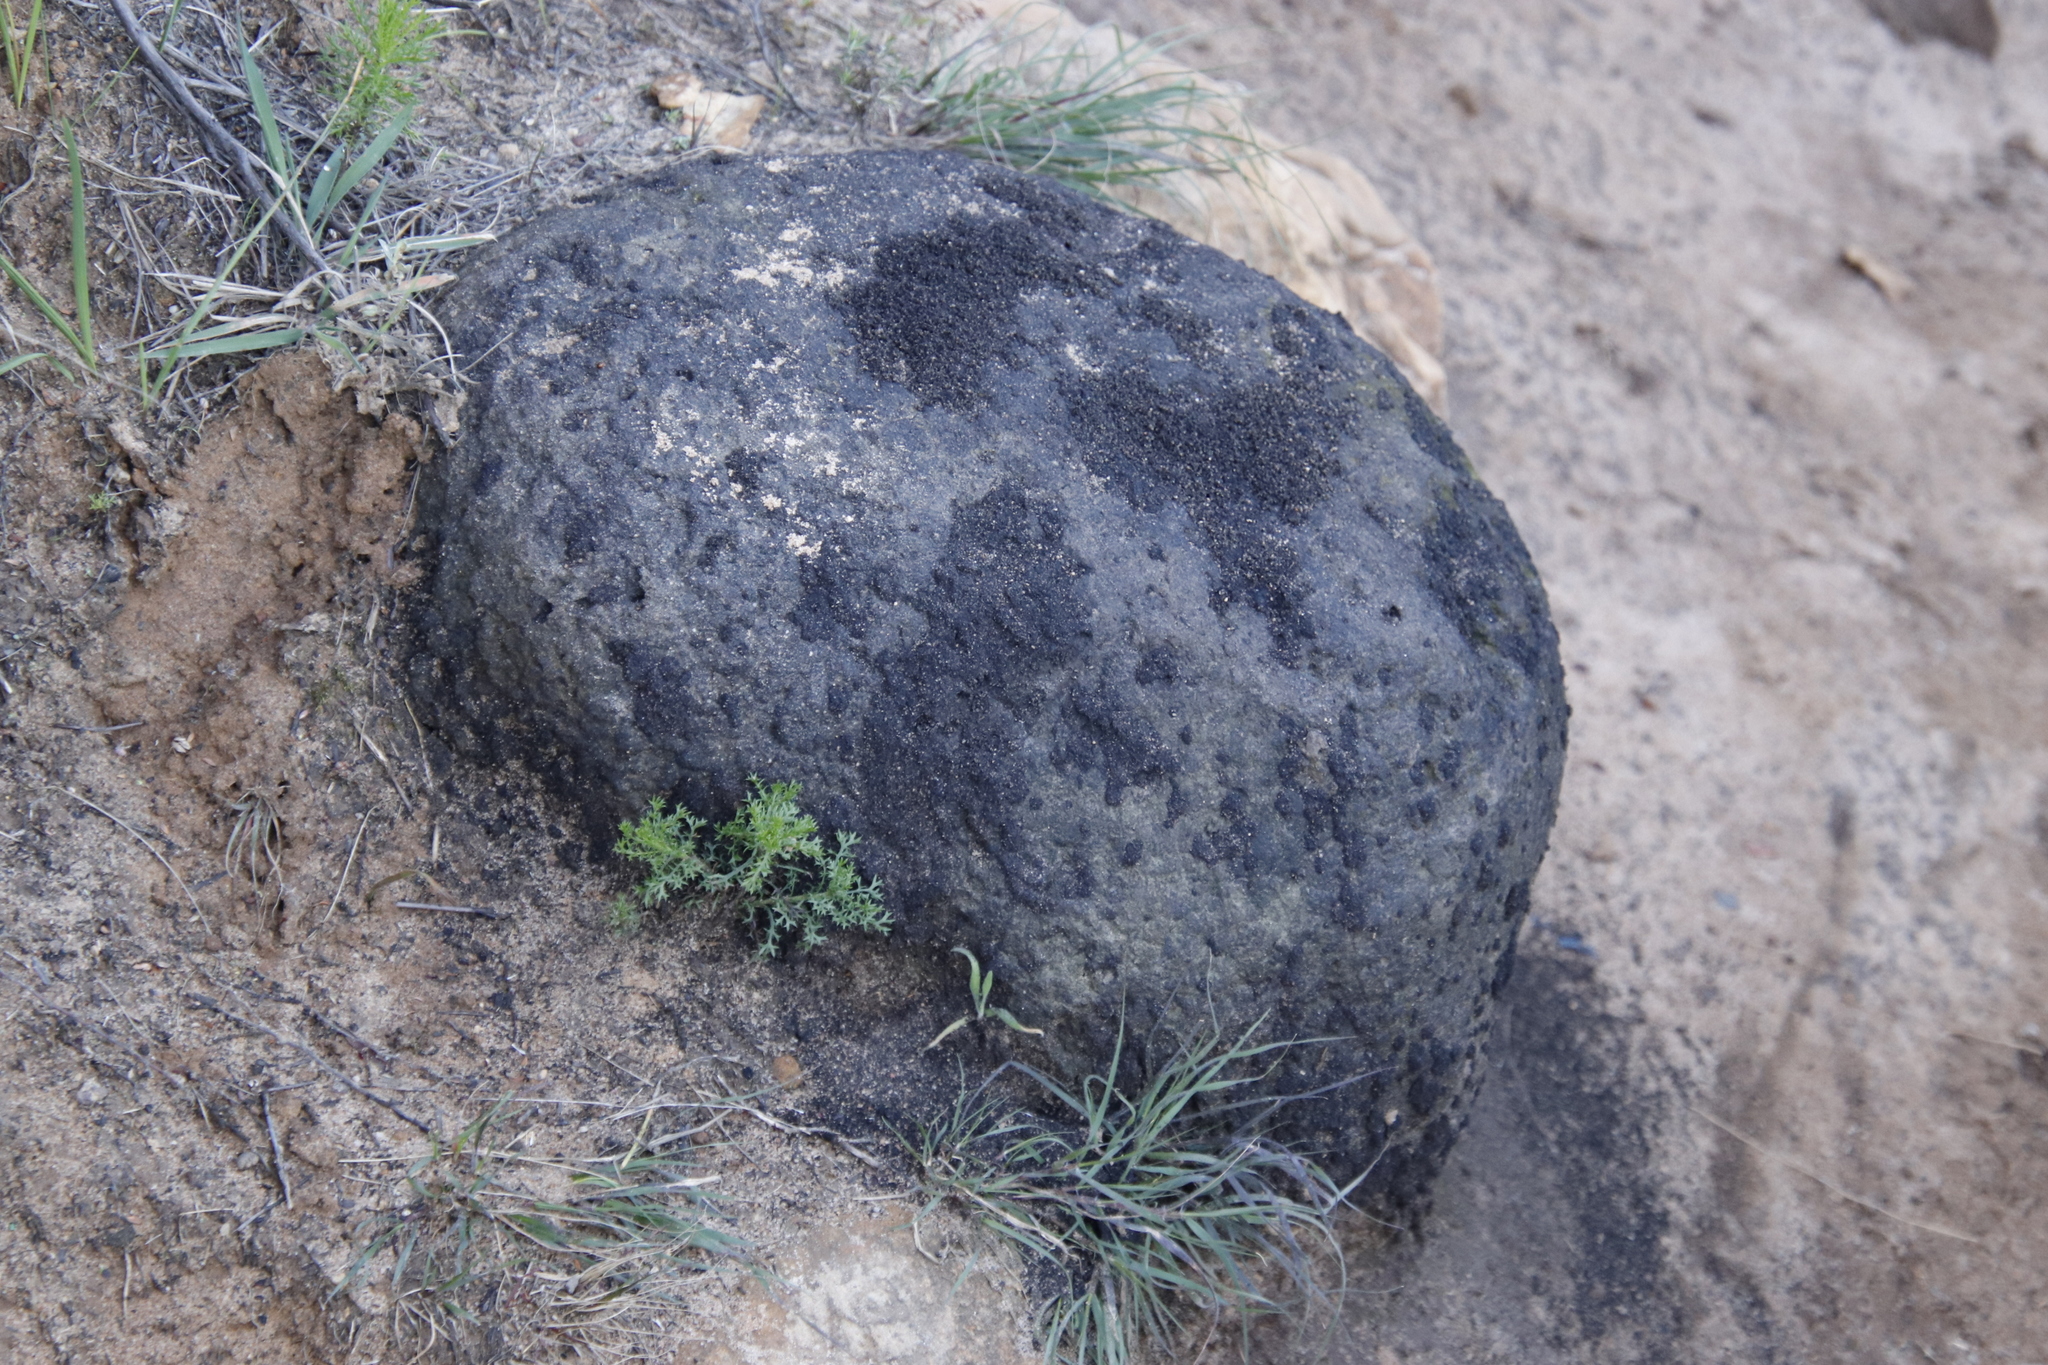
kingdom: Animalia
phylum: Arthropoda
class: Insecta
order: Blattodea
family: Termitidae
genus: Amitermes
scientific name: Amitermes hastatus
